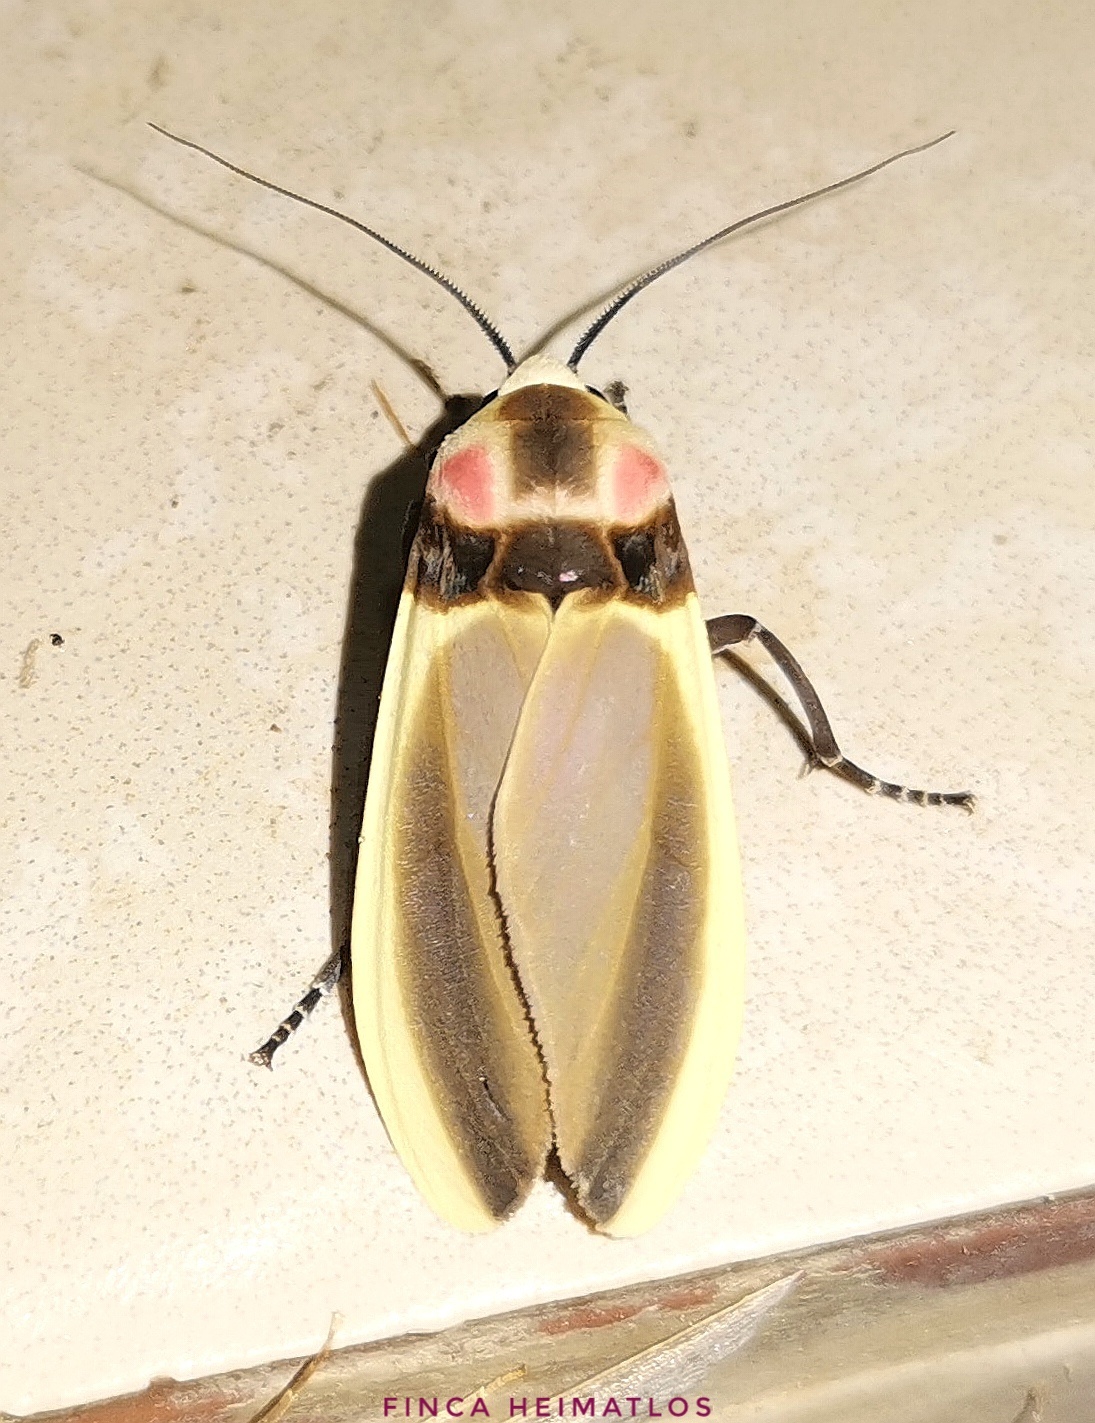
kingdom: Animalia
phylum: Arthropoda
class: Insecta
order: Lepidoptera
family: Erebidae
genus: Cratoplastis
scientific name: Cratoplastis diluta
